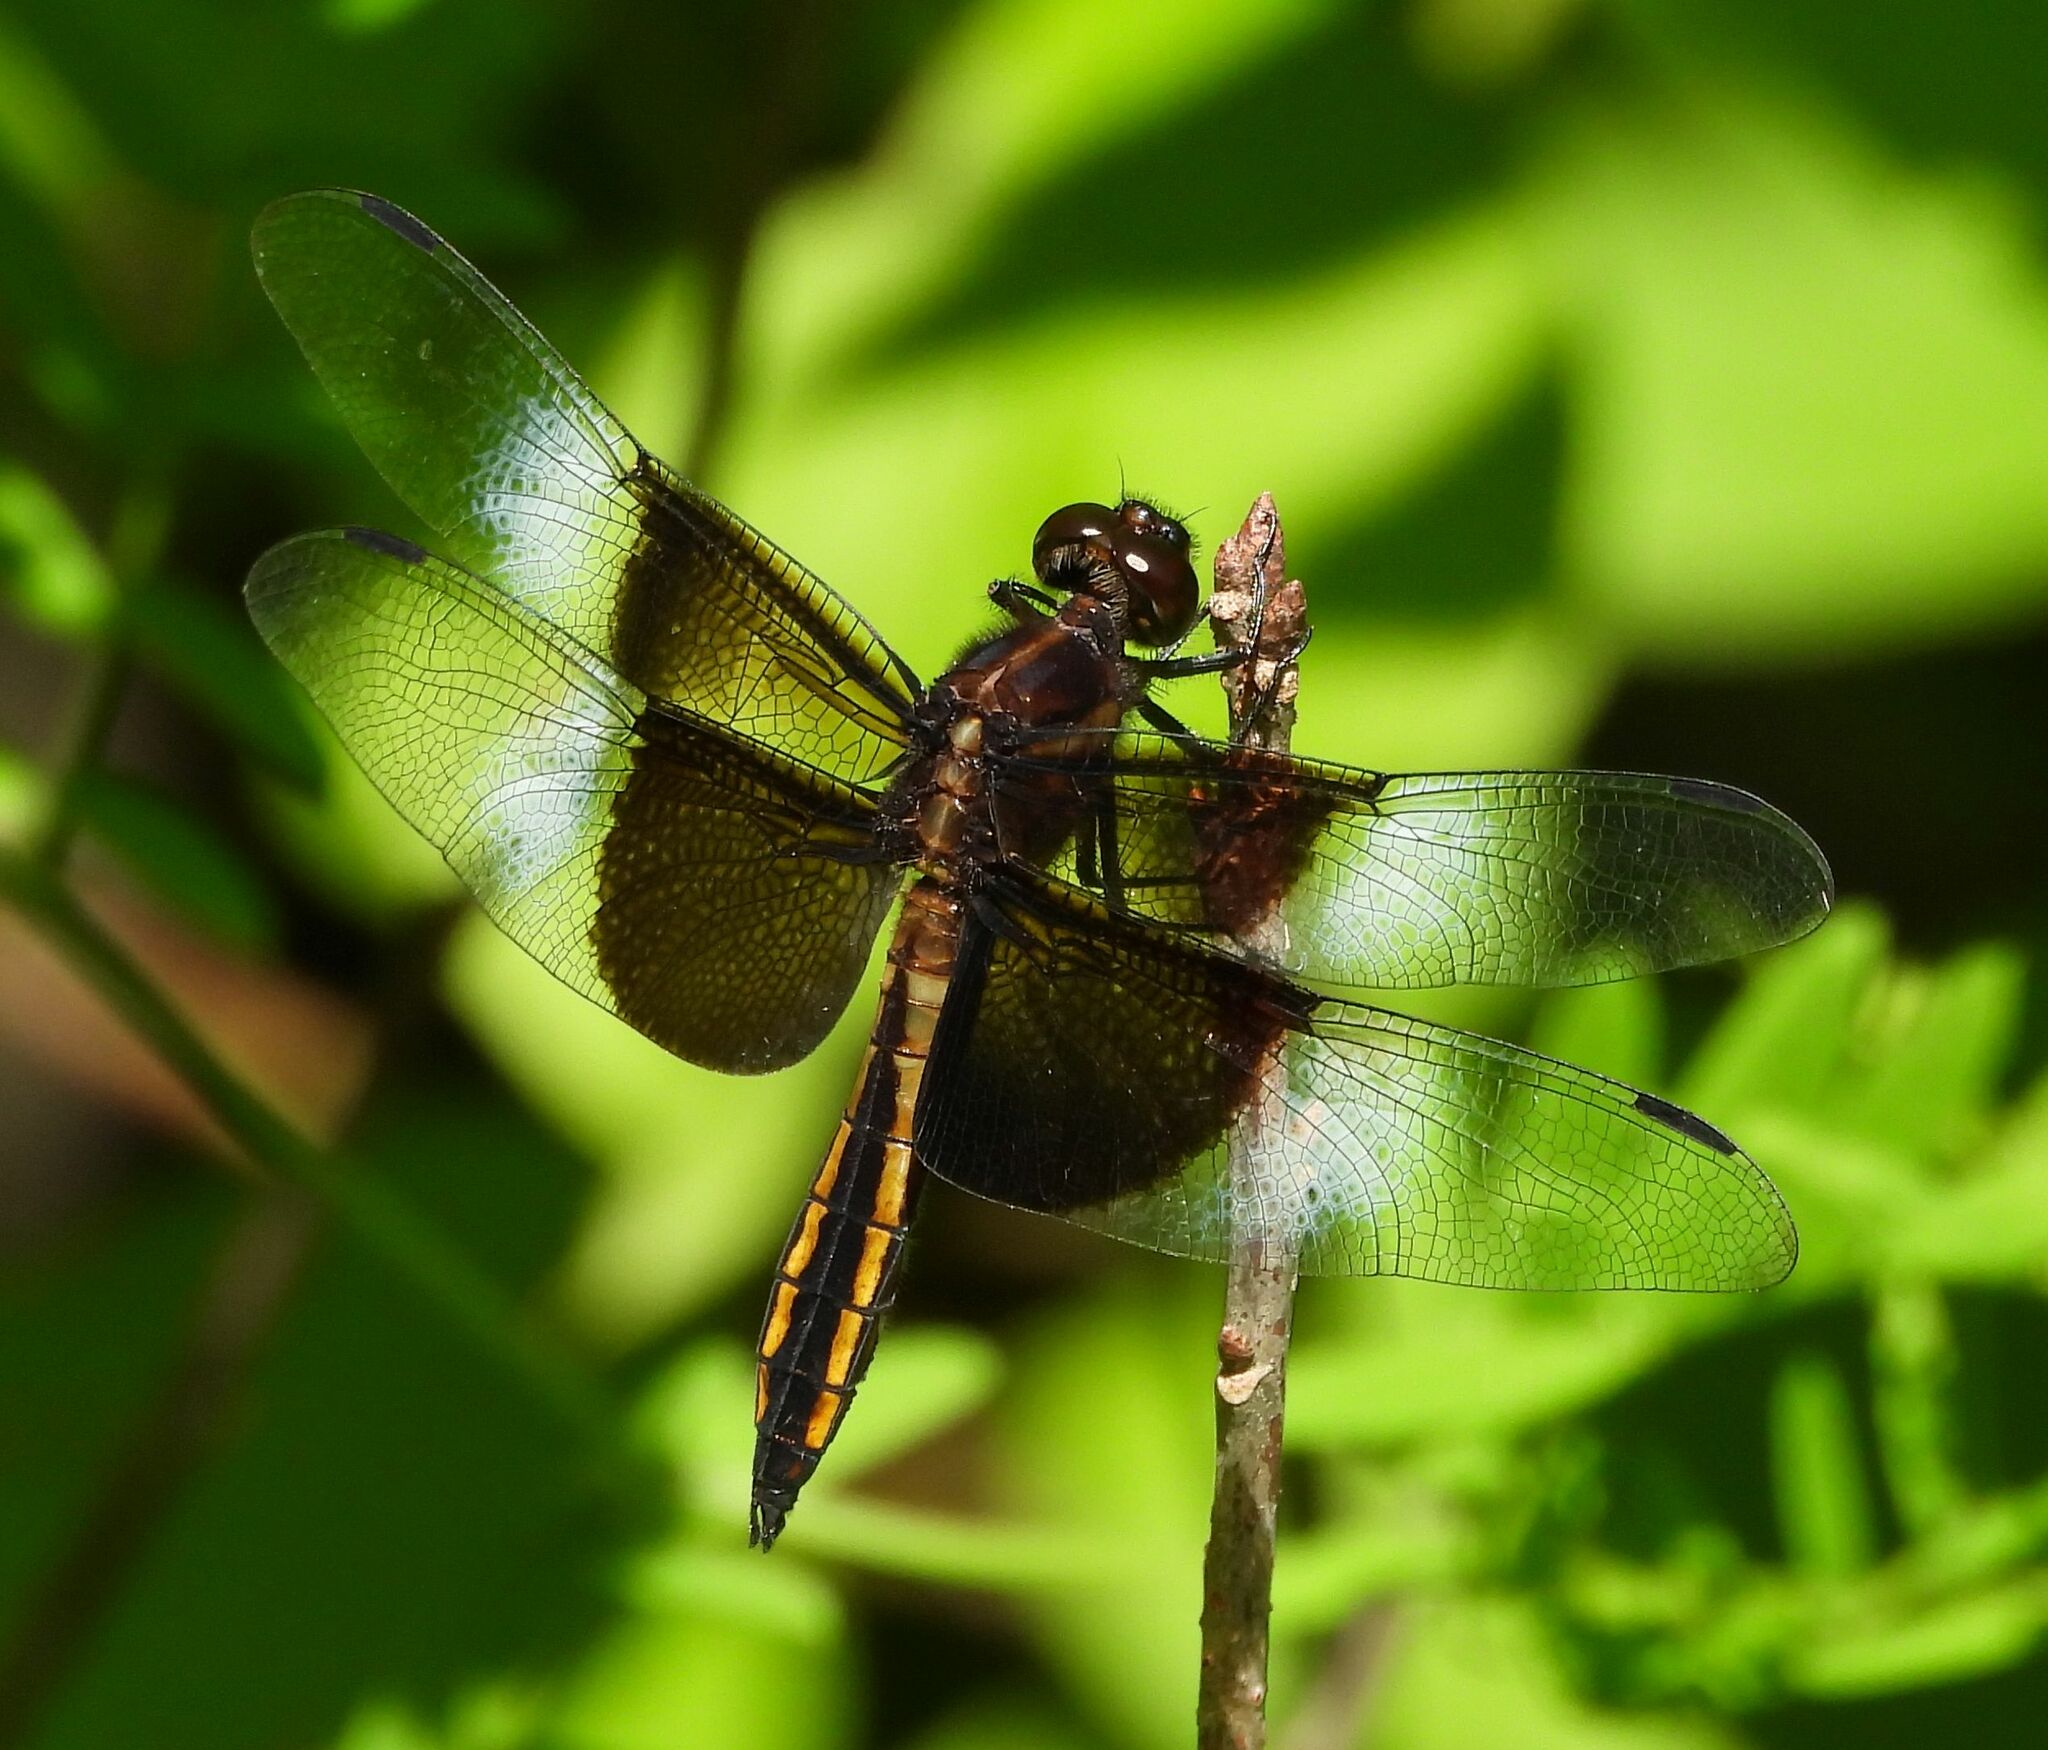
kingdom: Animalia
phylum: Arthropoda
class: Insecta
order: Odonata
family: Libellulidae
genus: Libellula
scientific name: Libellula luctuosa
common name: Widow skimmer
